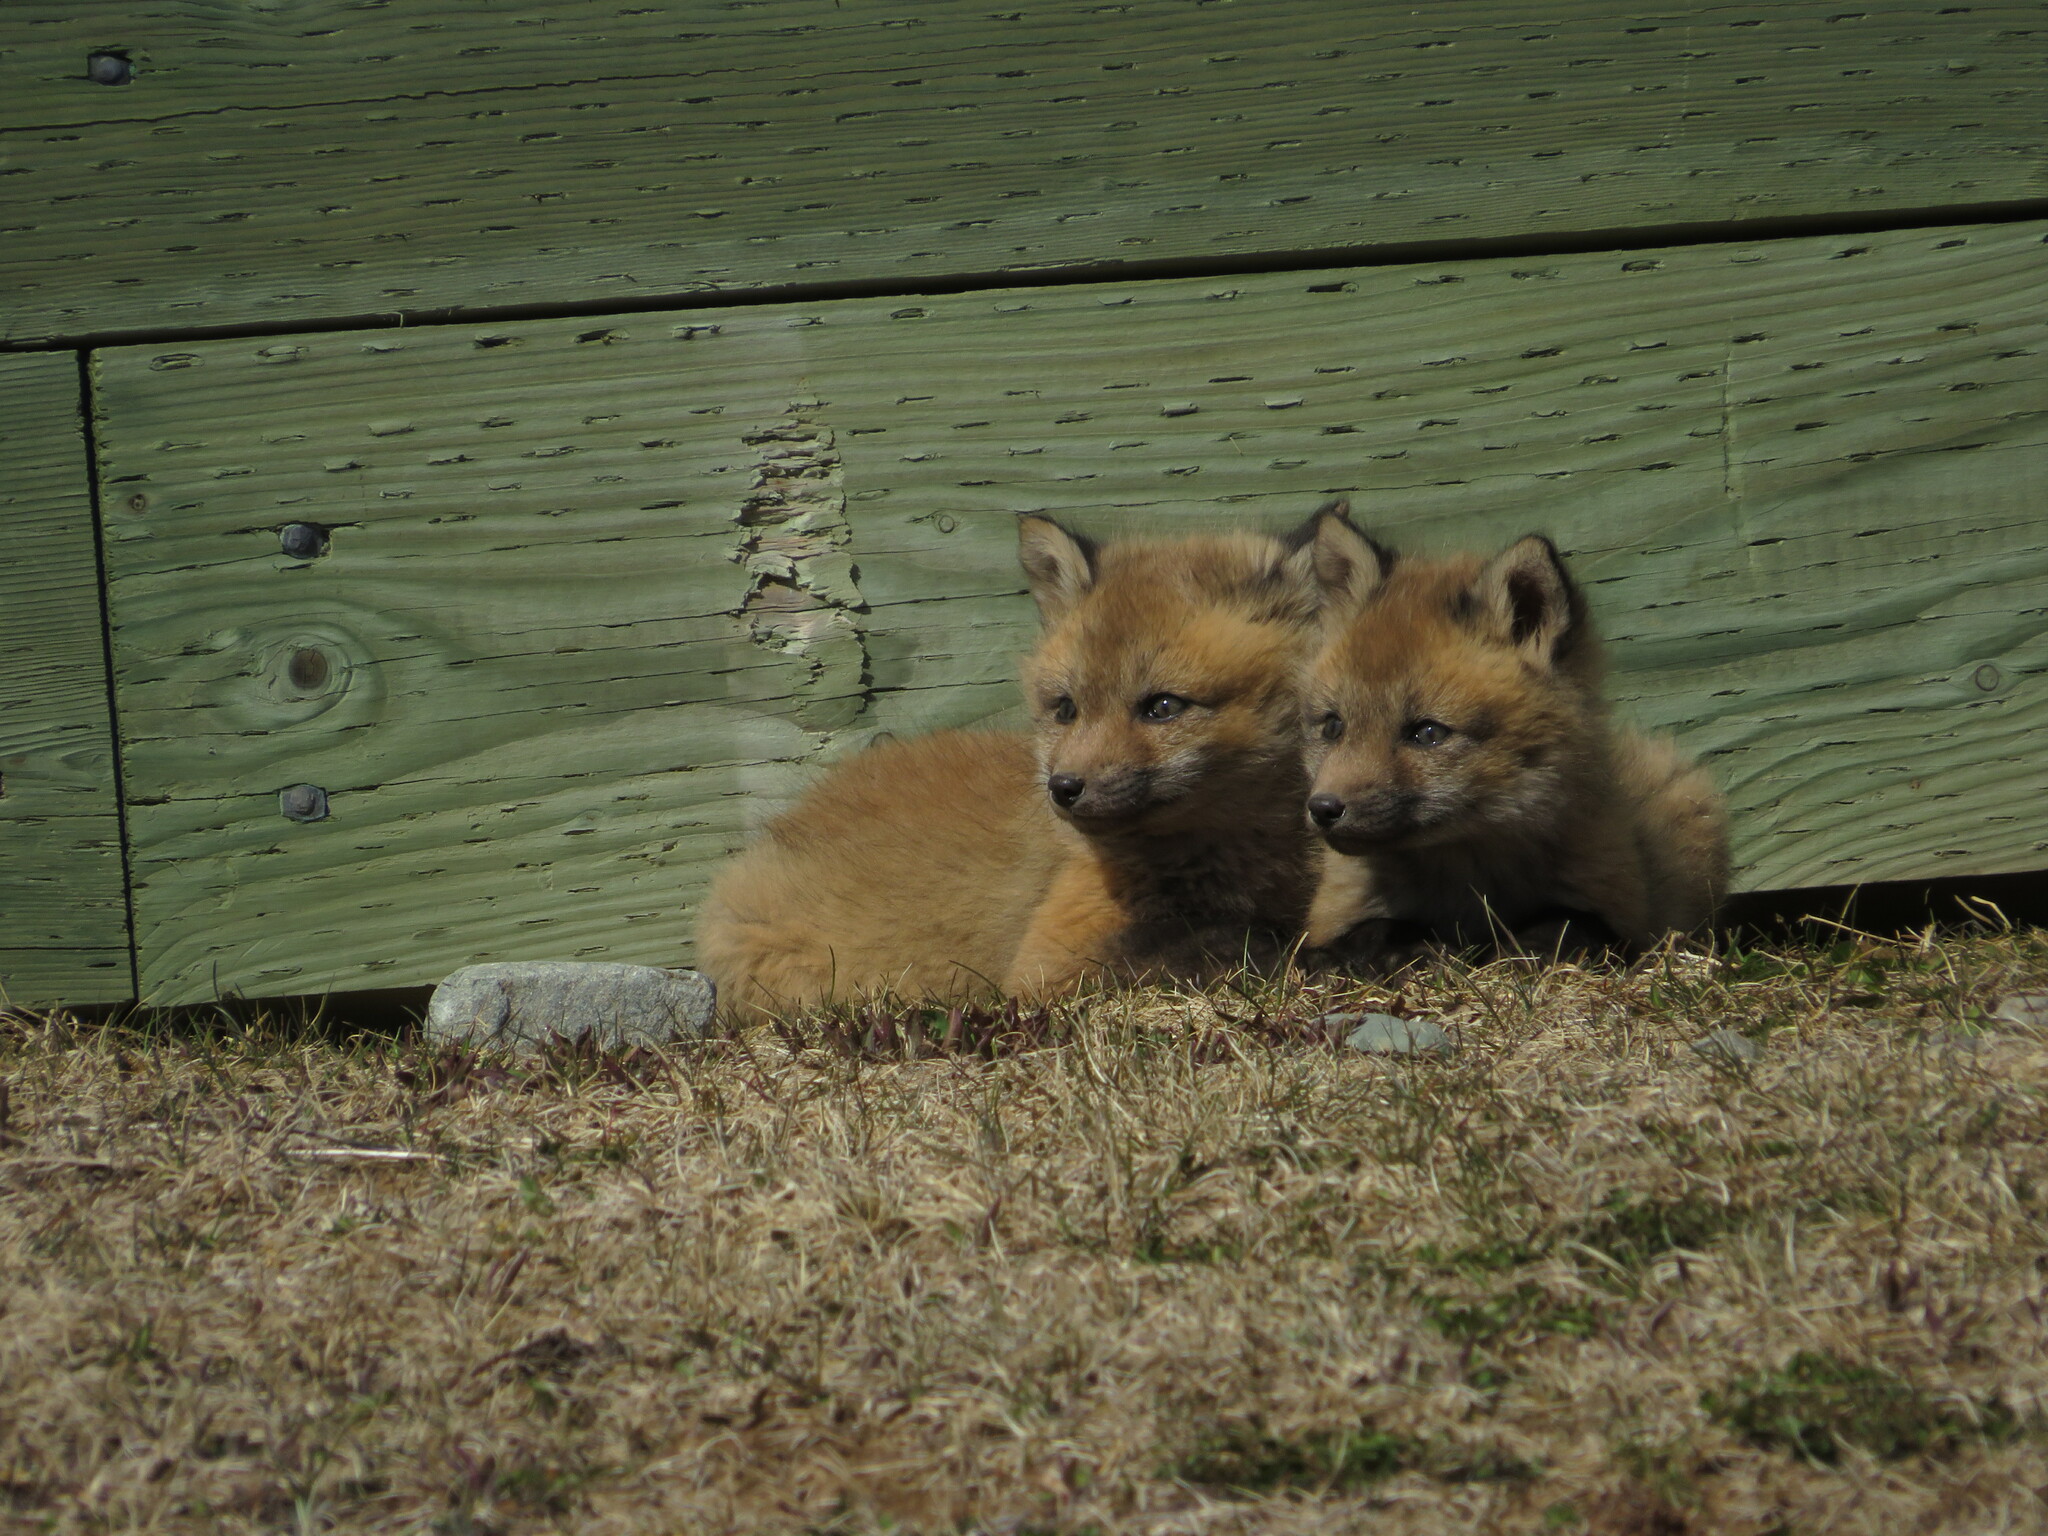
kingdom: Animalia
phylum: Chordata
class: Mammalia
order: Carnivora
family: Canidae
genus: Vulpes
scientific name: Vulpes vulpes
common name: Red fox
